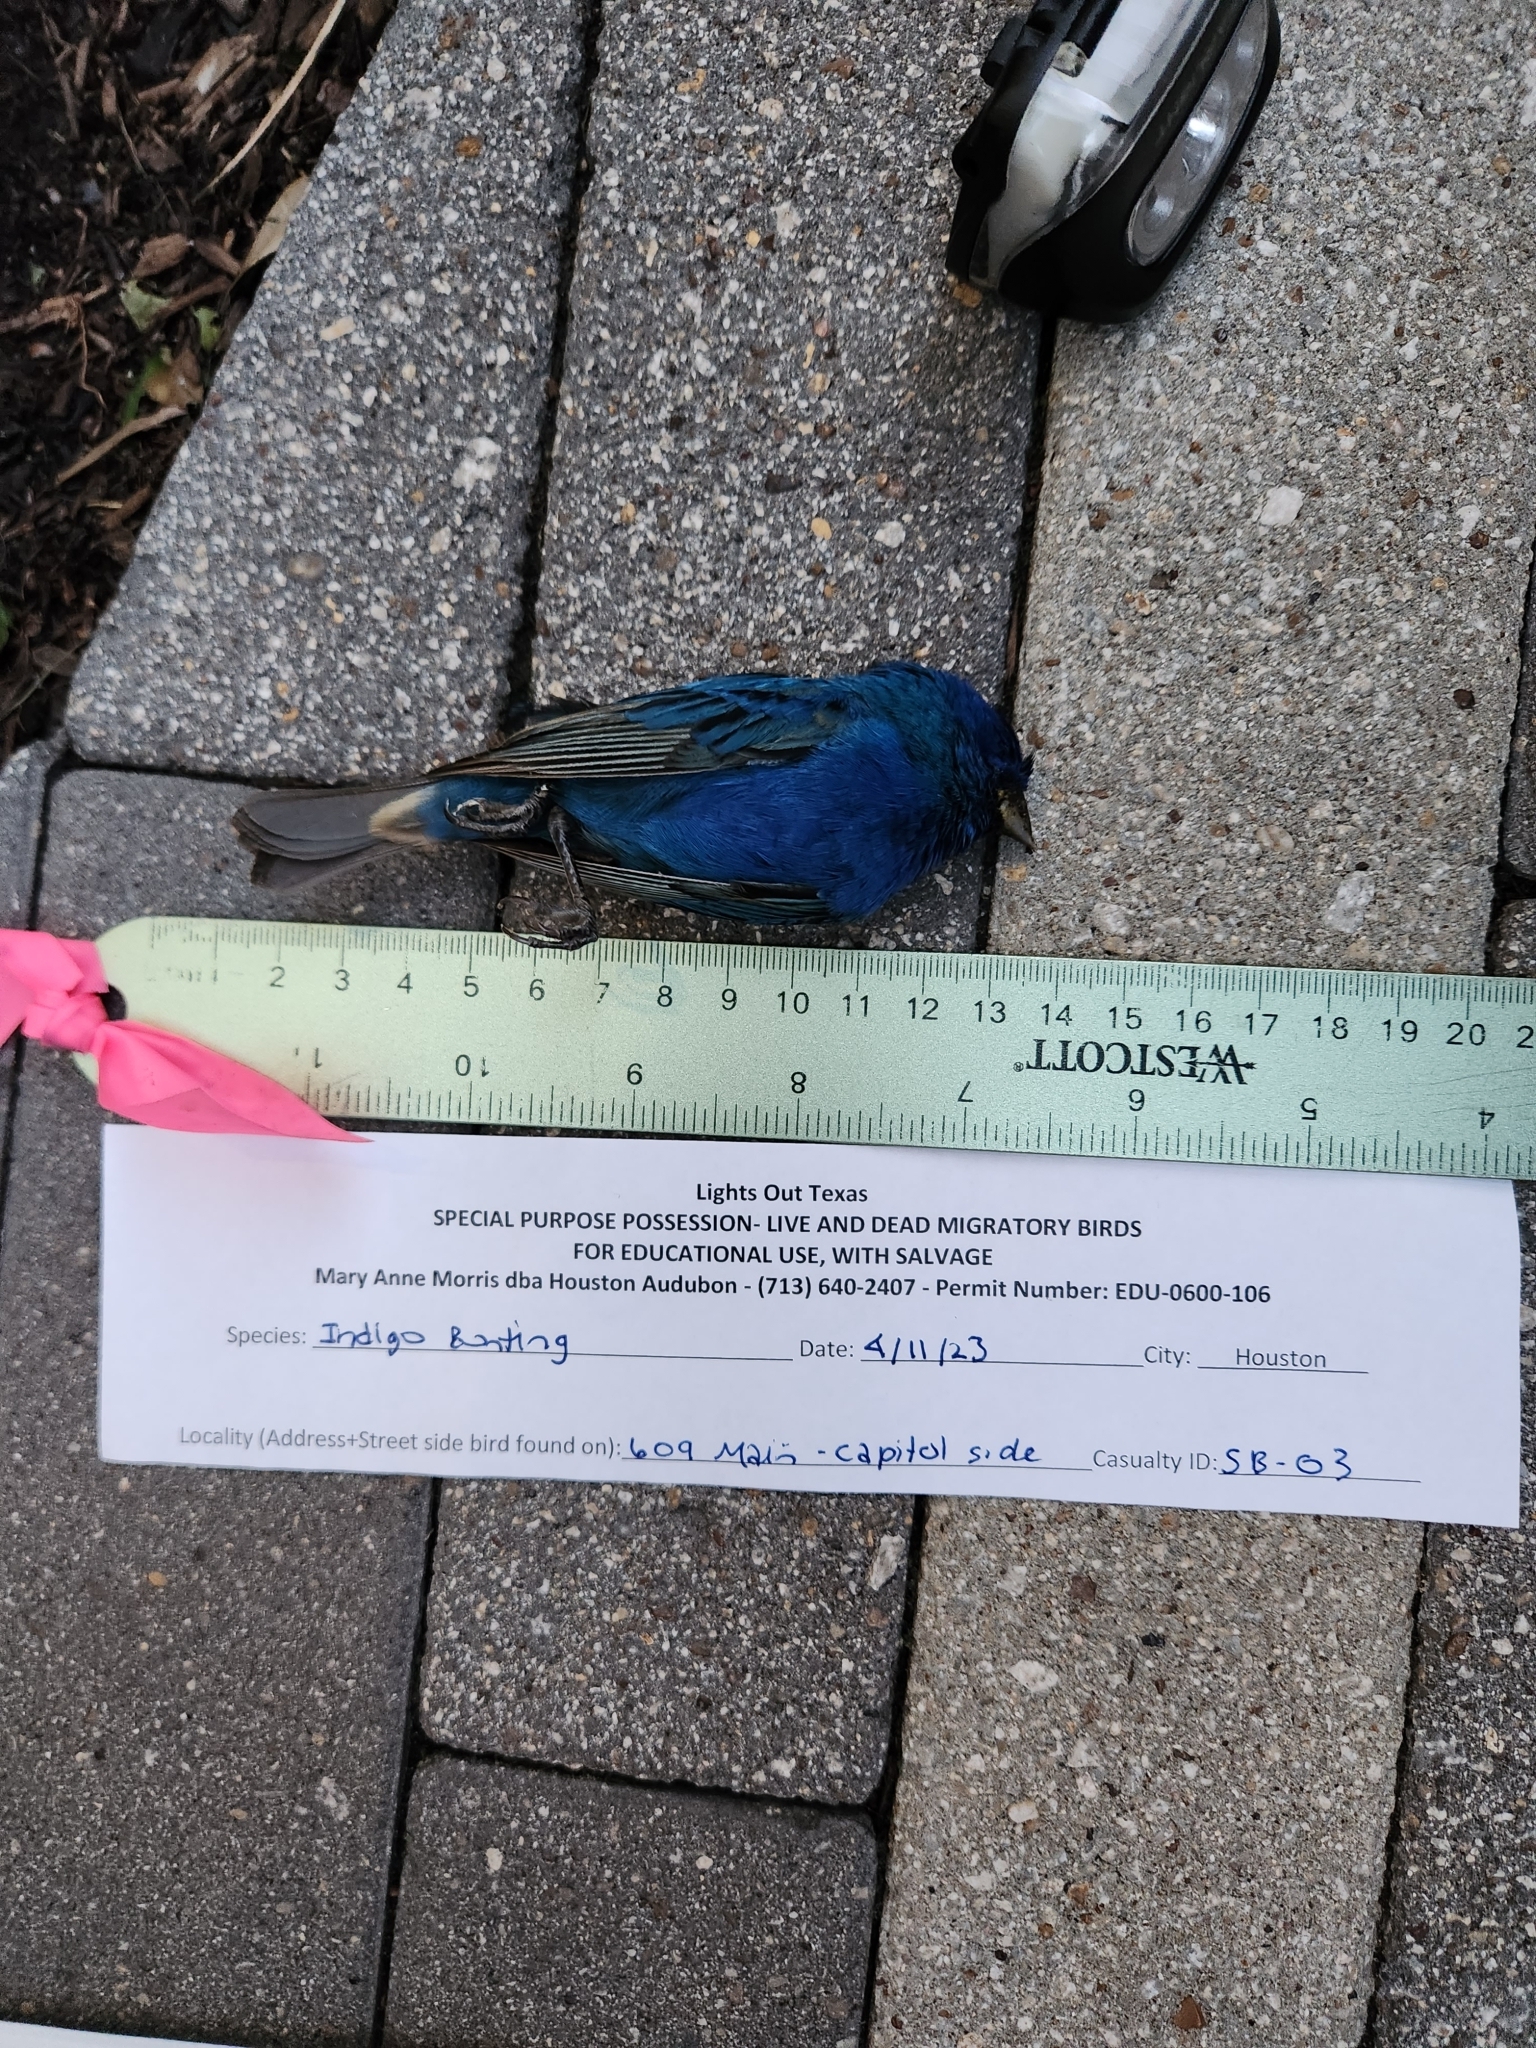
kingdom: Animalia
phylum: Chordata
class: Aves
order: Passeriformes
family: Cardinalidae
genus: Passerina
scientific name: Passerina cyanea
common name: Indigo bunting
